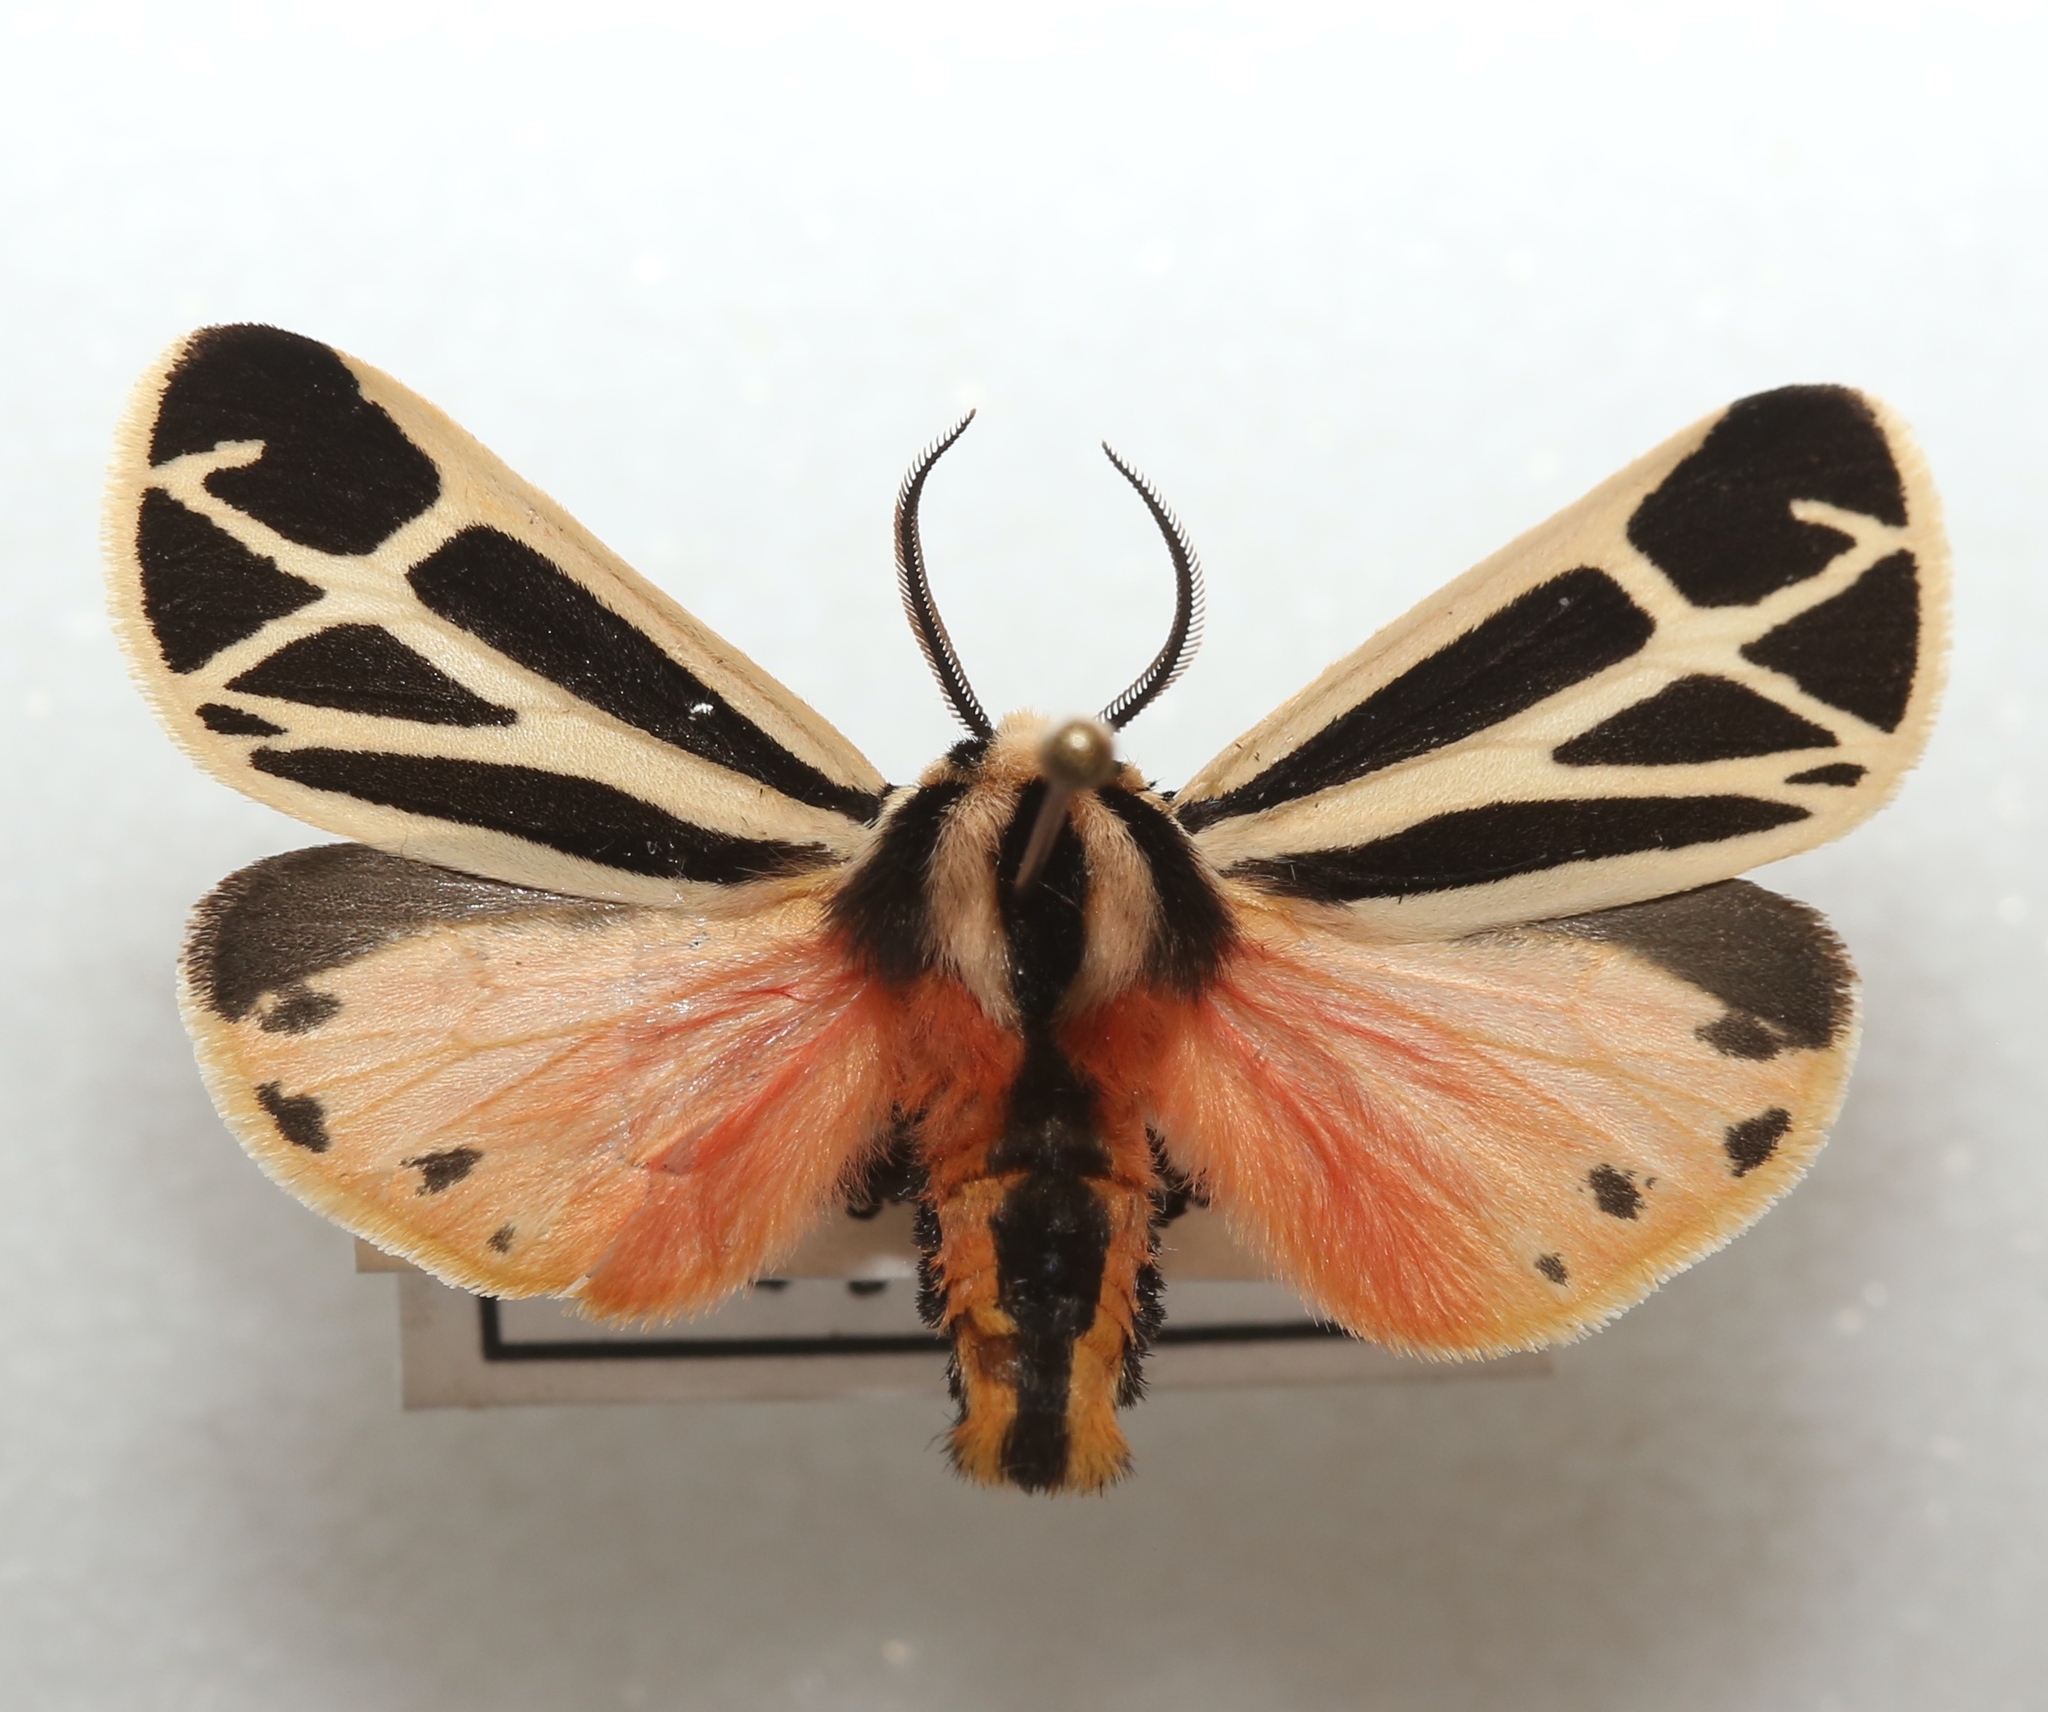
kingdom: Animalia
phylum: Arthropoda
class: Insecta
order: Lepidoptera
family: Erebidae
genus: Apantesis
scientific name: Apantesis phalerata
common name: Harnessed tiger moth
